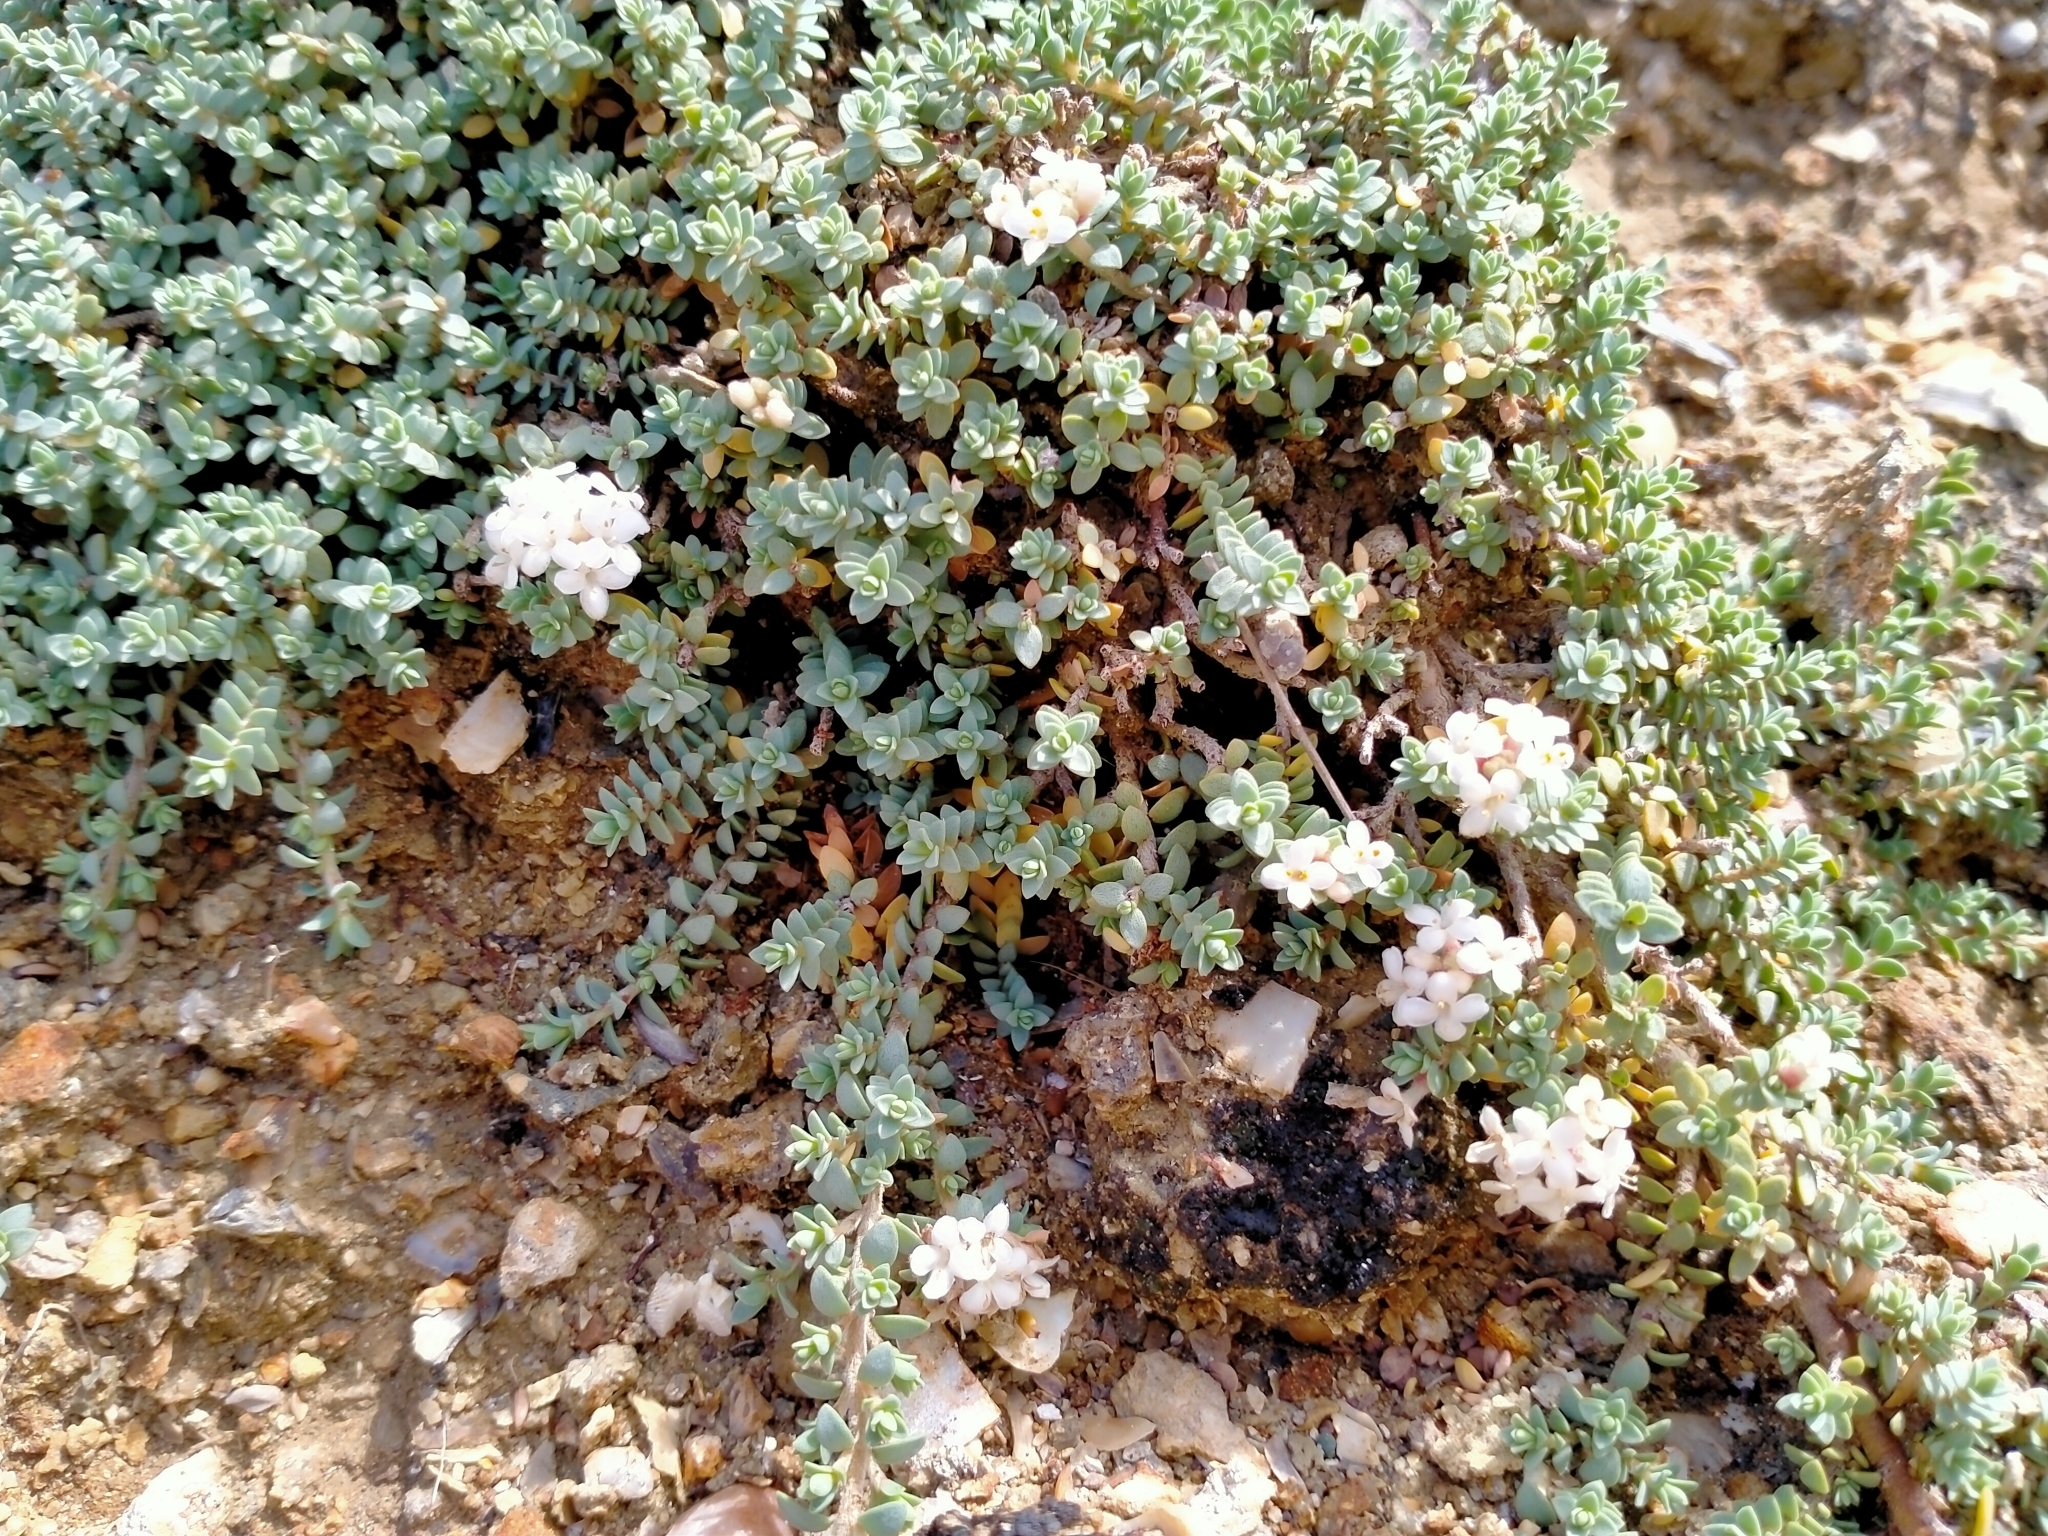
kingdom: Plantae
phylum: Tracheophyta
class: Magnoliopsida
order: Malvales
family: Thymelaeaceae
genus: Pimelea
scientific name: Pimelea prostrata
